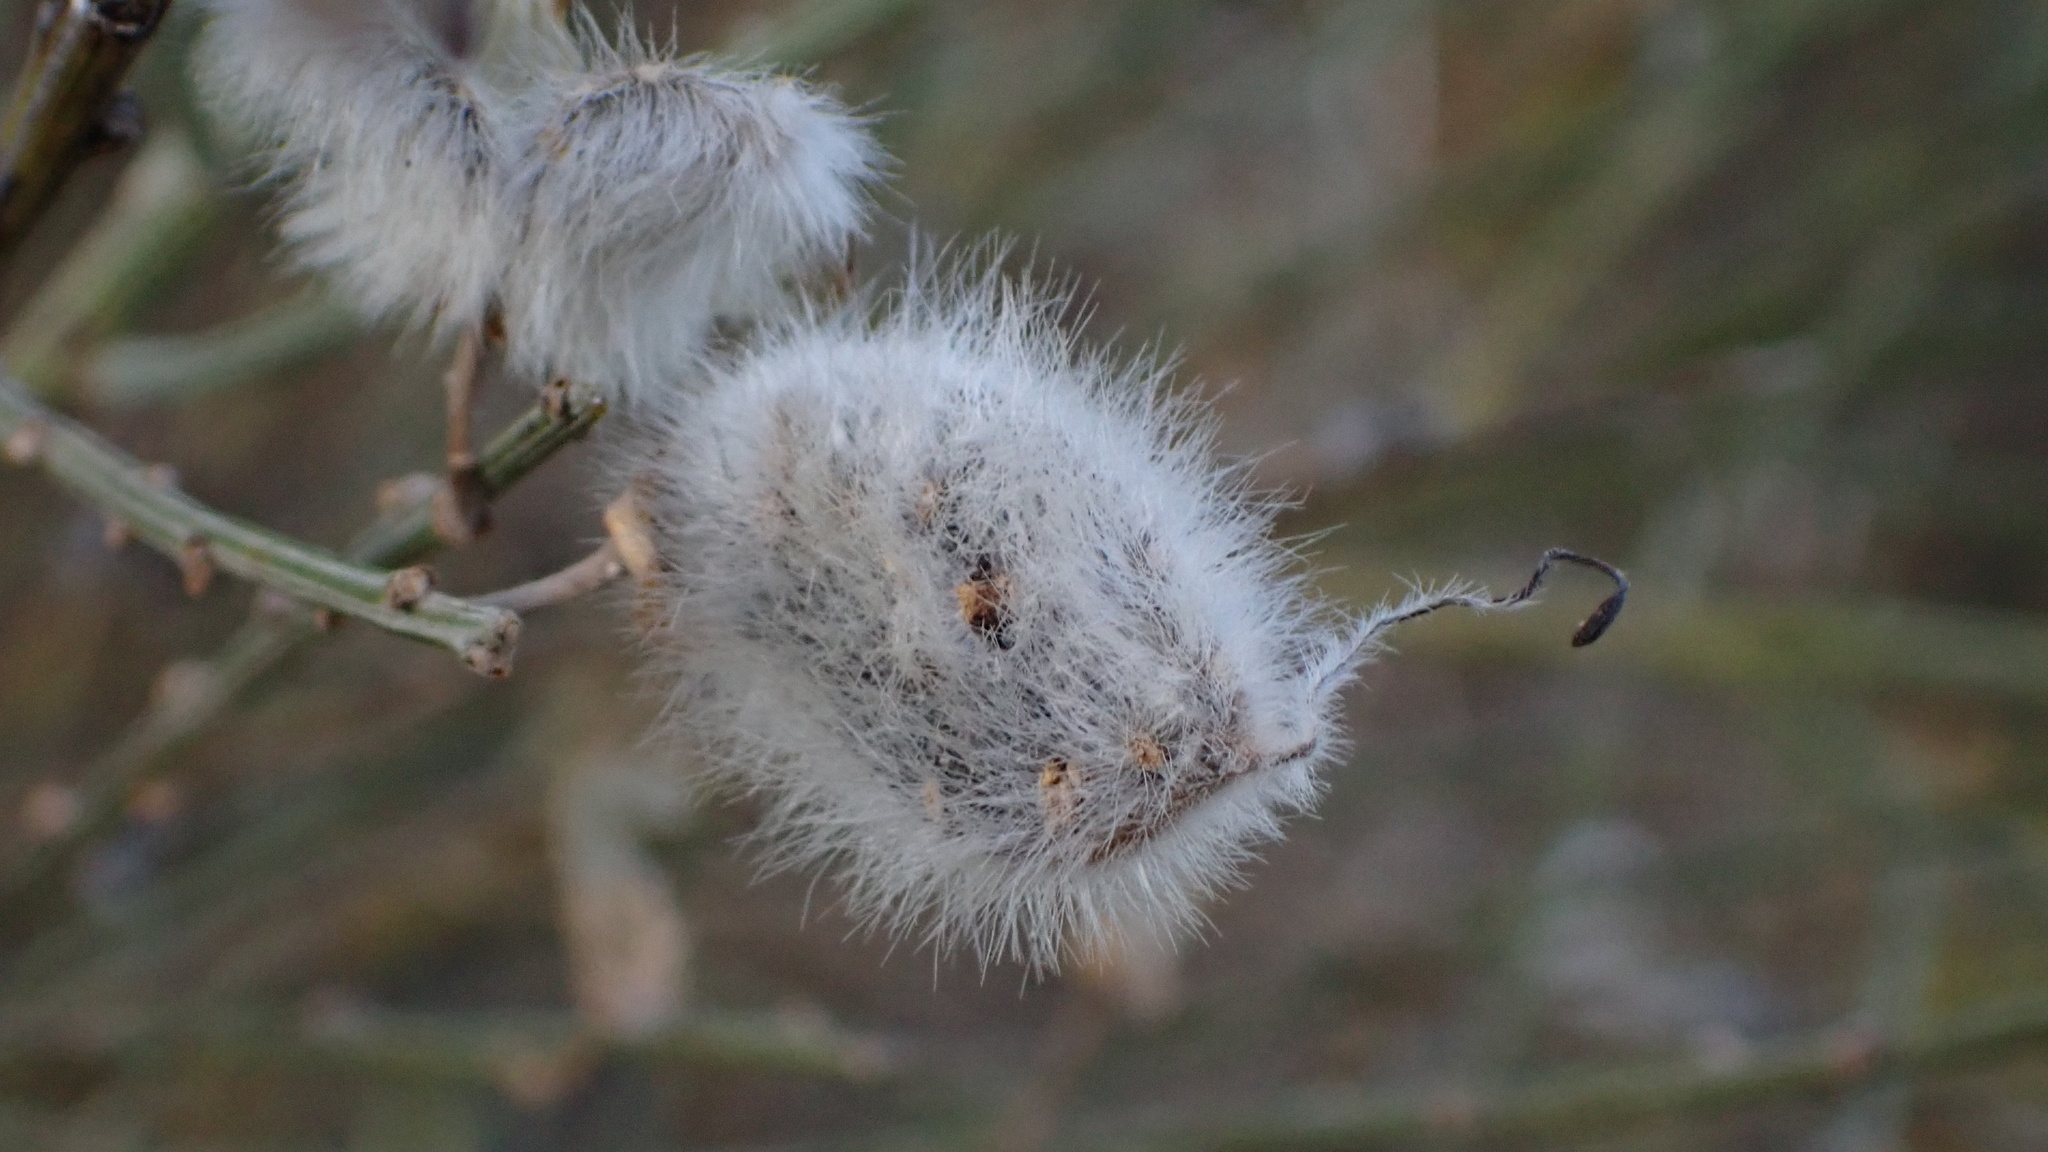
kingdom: Plantae
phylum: Tracheophyta
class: Magnoliopsida
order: Fabales
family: Fabaceae
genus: Cytisus
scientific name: Cytisus striatus
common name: Hairy-fruited broom
